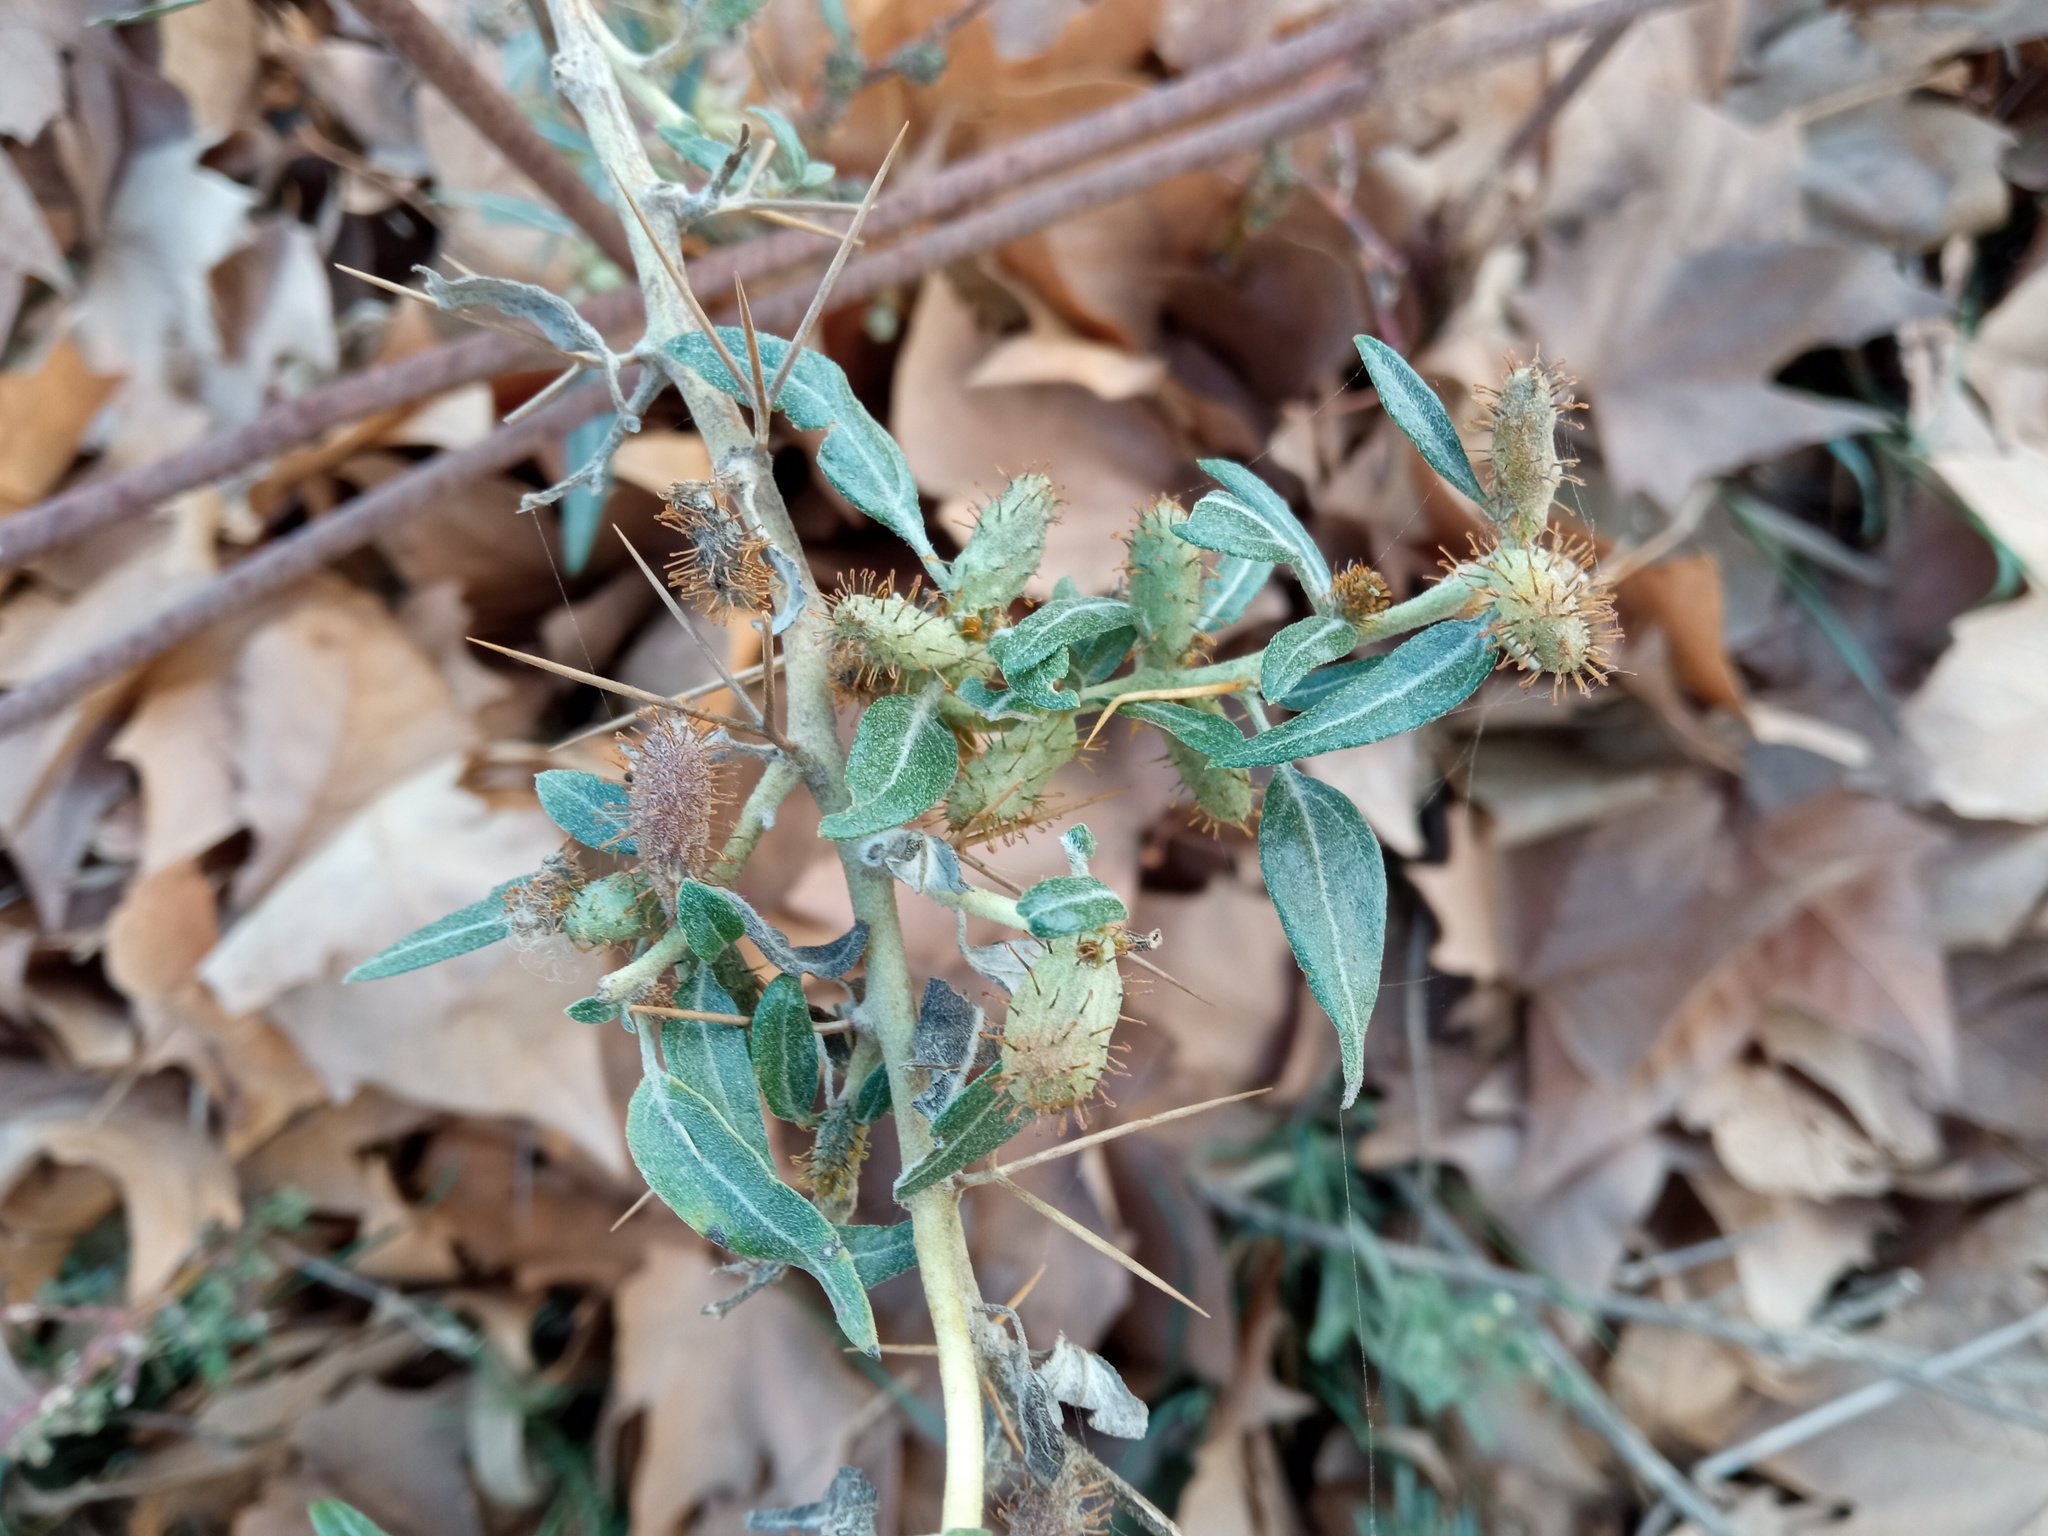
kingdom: Plantae
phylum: Tracheophyta
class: Magnoliopsida
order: Asterales
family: Asteraceae
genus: Xanthium
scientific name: Xanthium spinosum
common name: Spiny cocklebur
